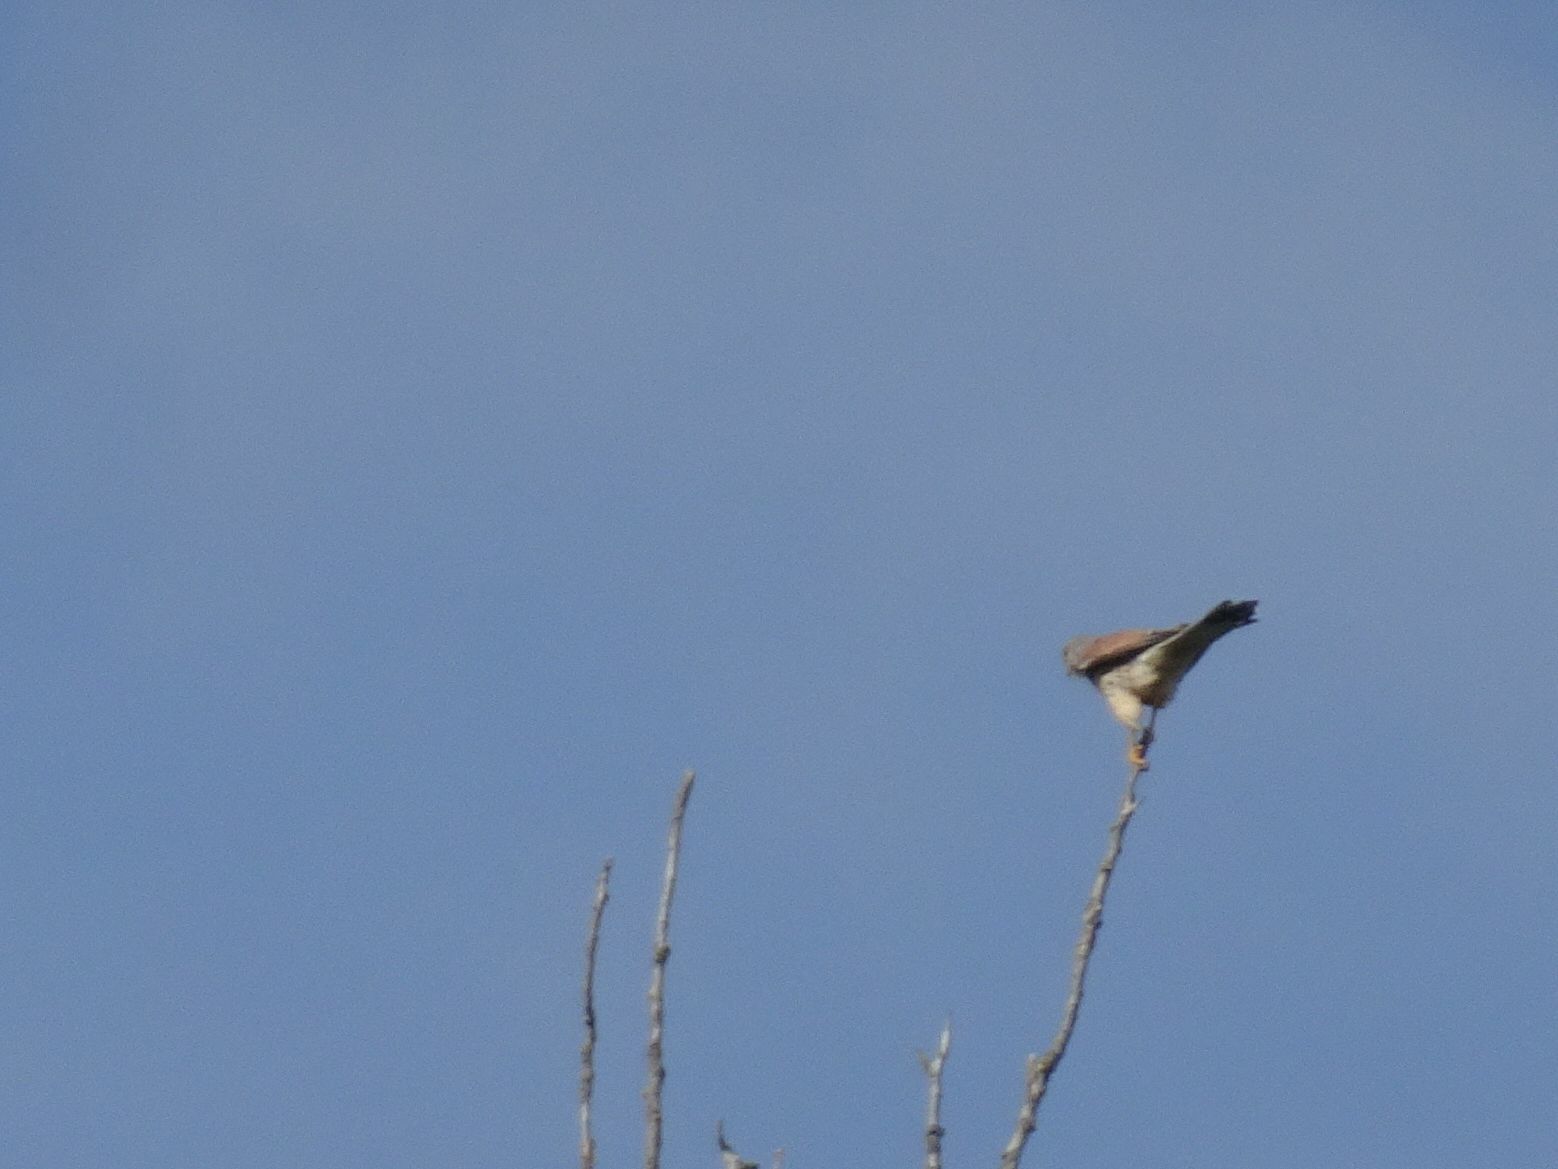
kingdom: Animalia
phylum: Chordata
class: Aves
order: Falconiformes
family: Falconidae
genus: Falco
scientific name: Falco tinnunculus
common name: Common kestrel
